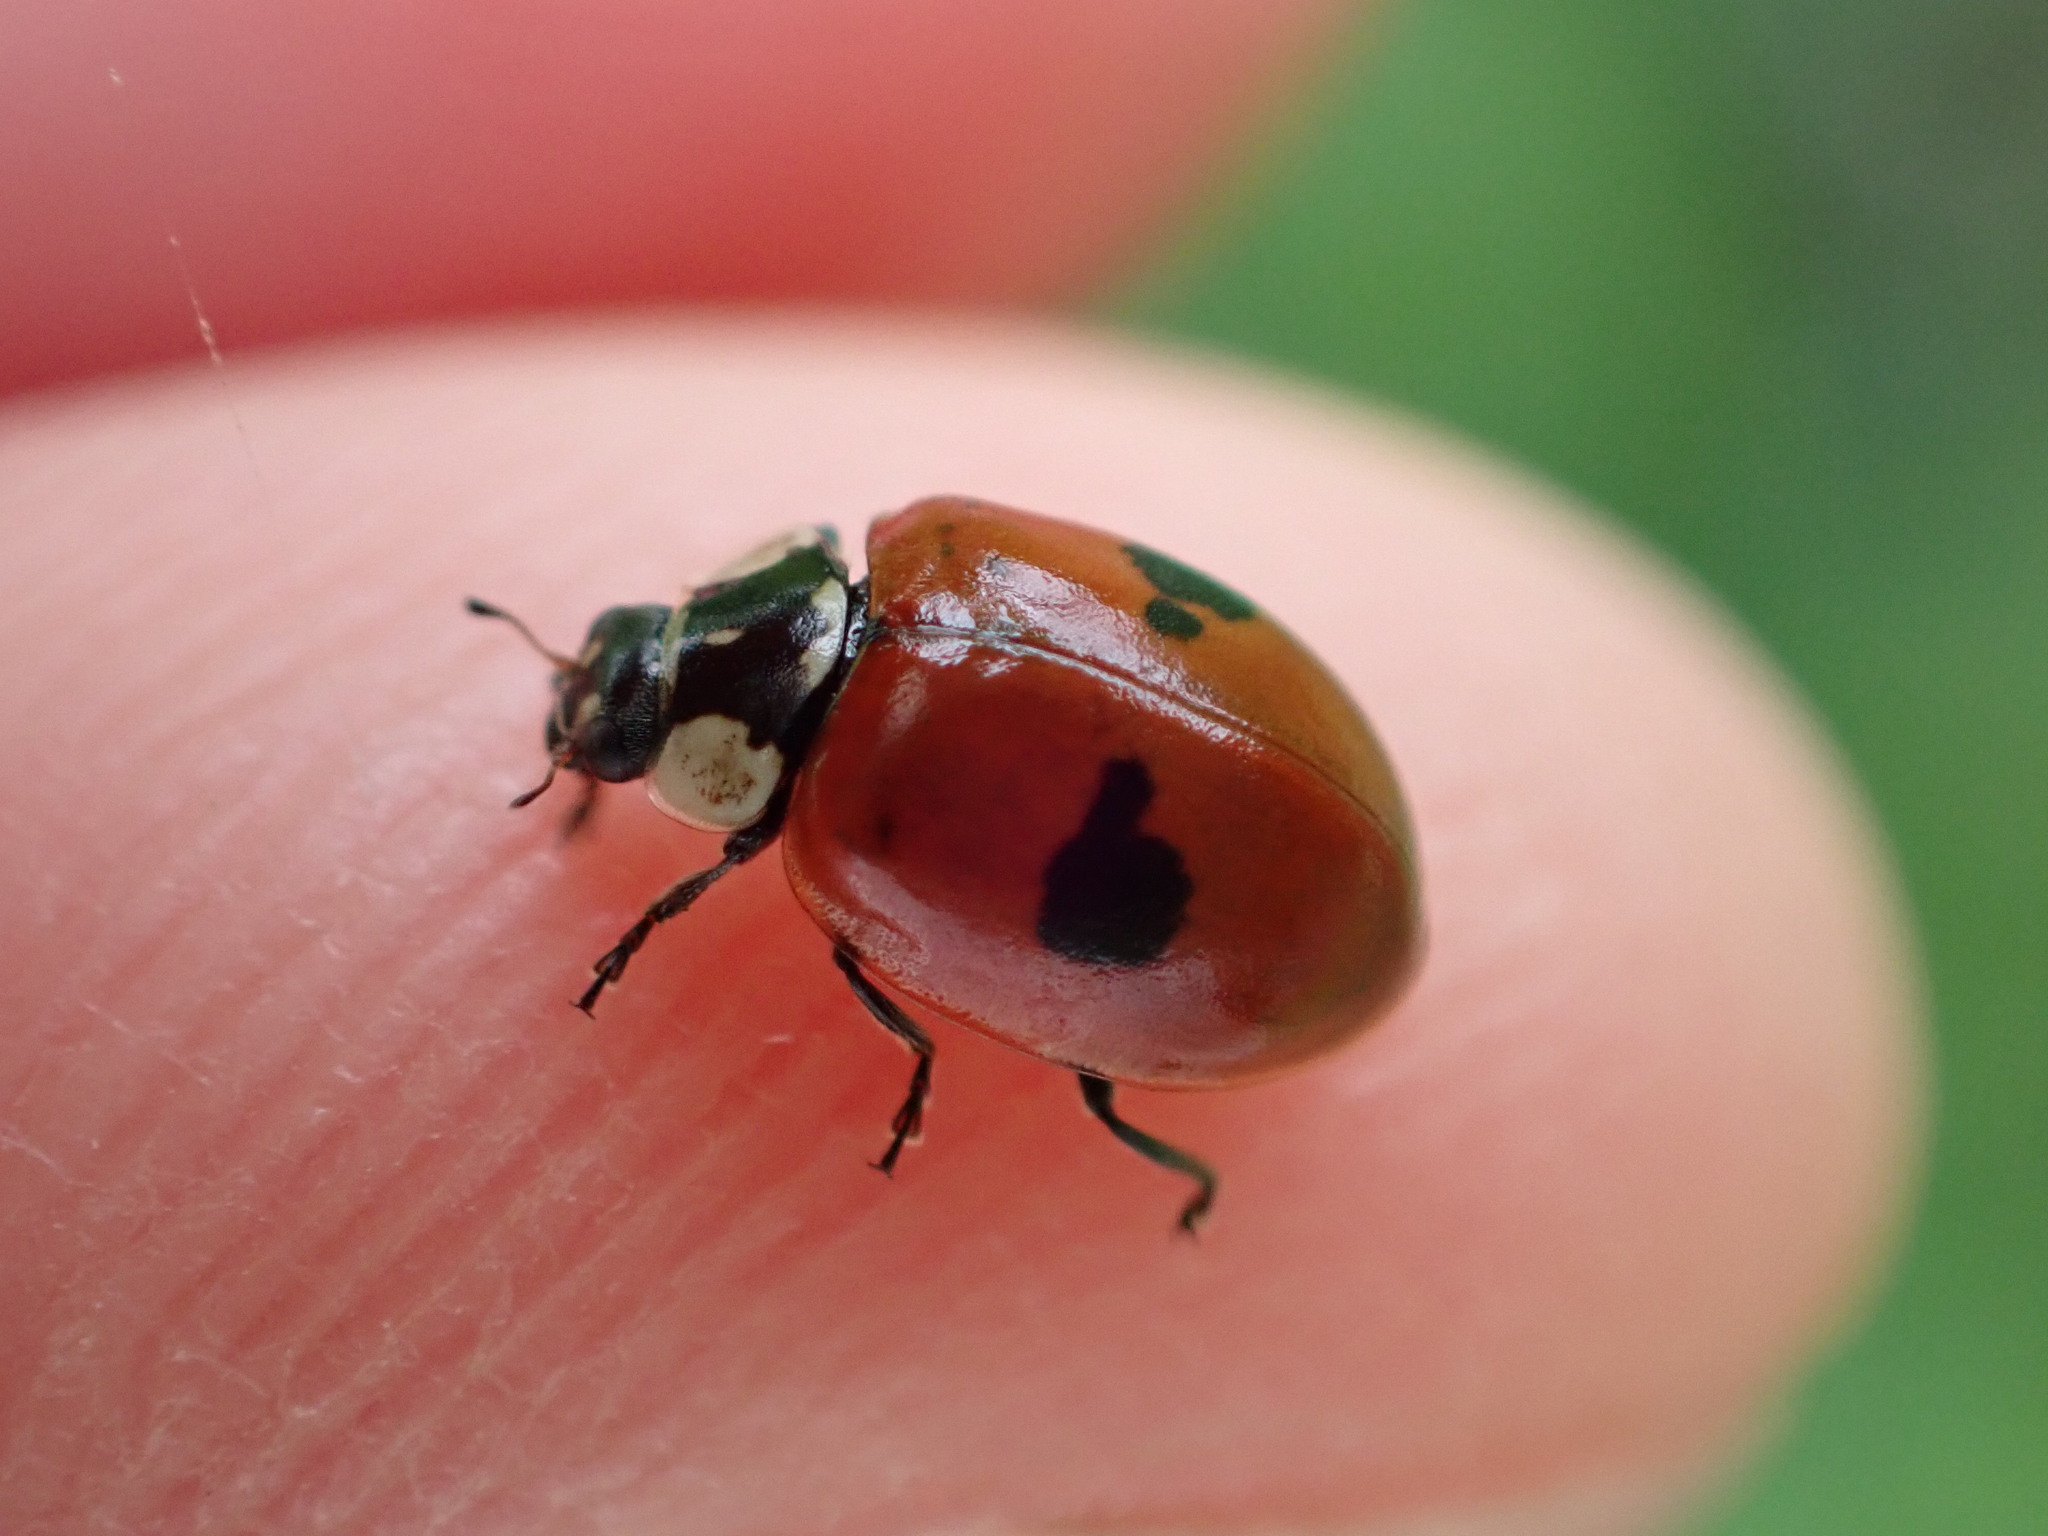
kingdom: Animalia
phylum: Arthropoda
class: Insecta
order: Coleoptera
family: Coccinellidae
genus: Adalia
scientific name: Adalia bipunctata
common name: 2-spot ladybird
